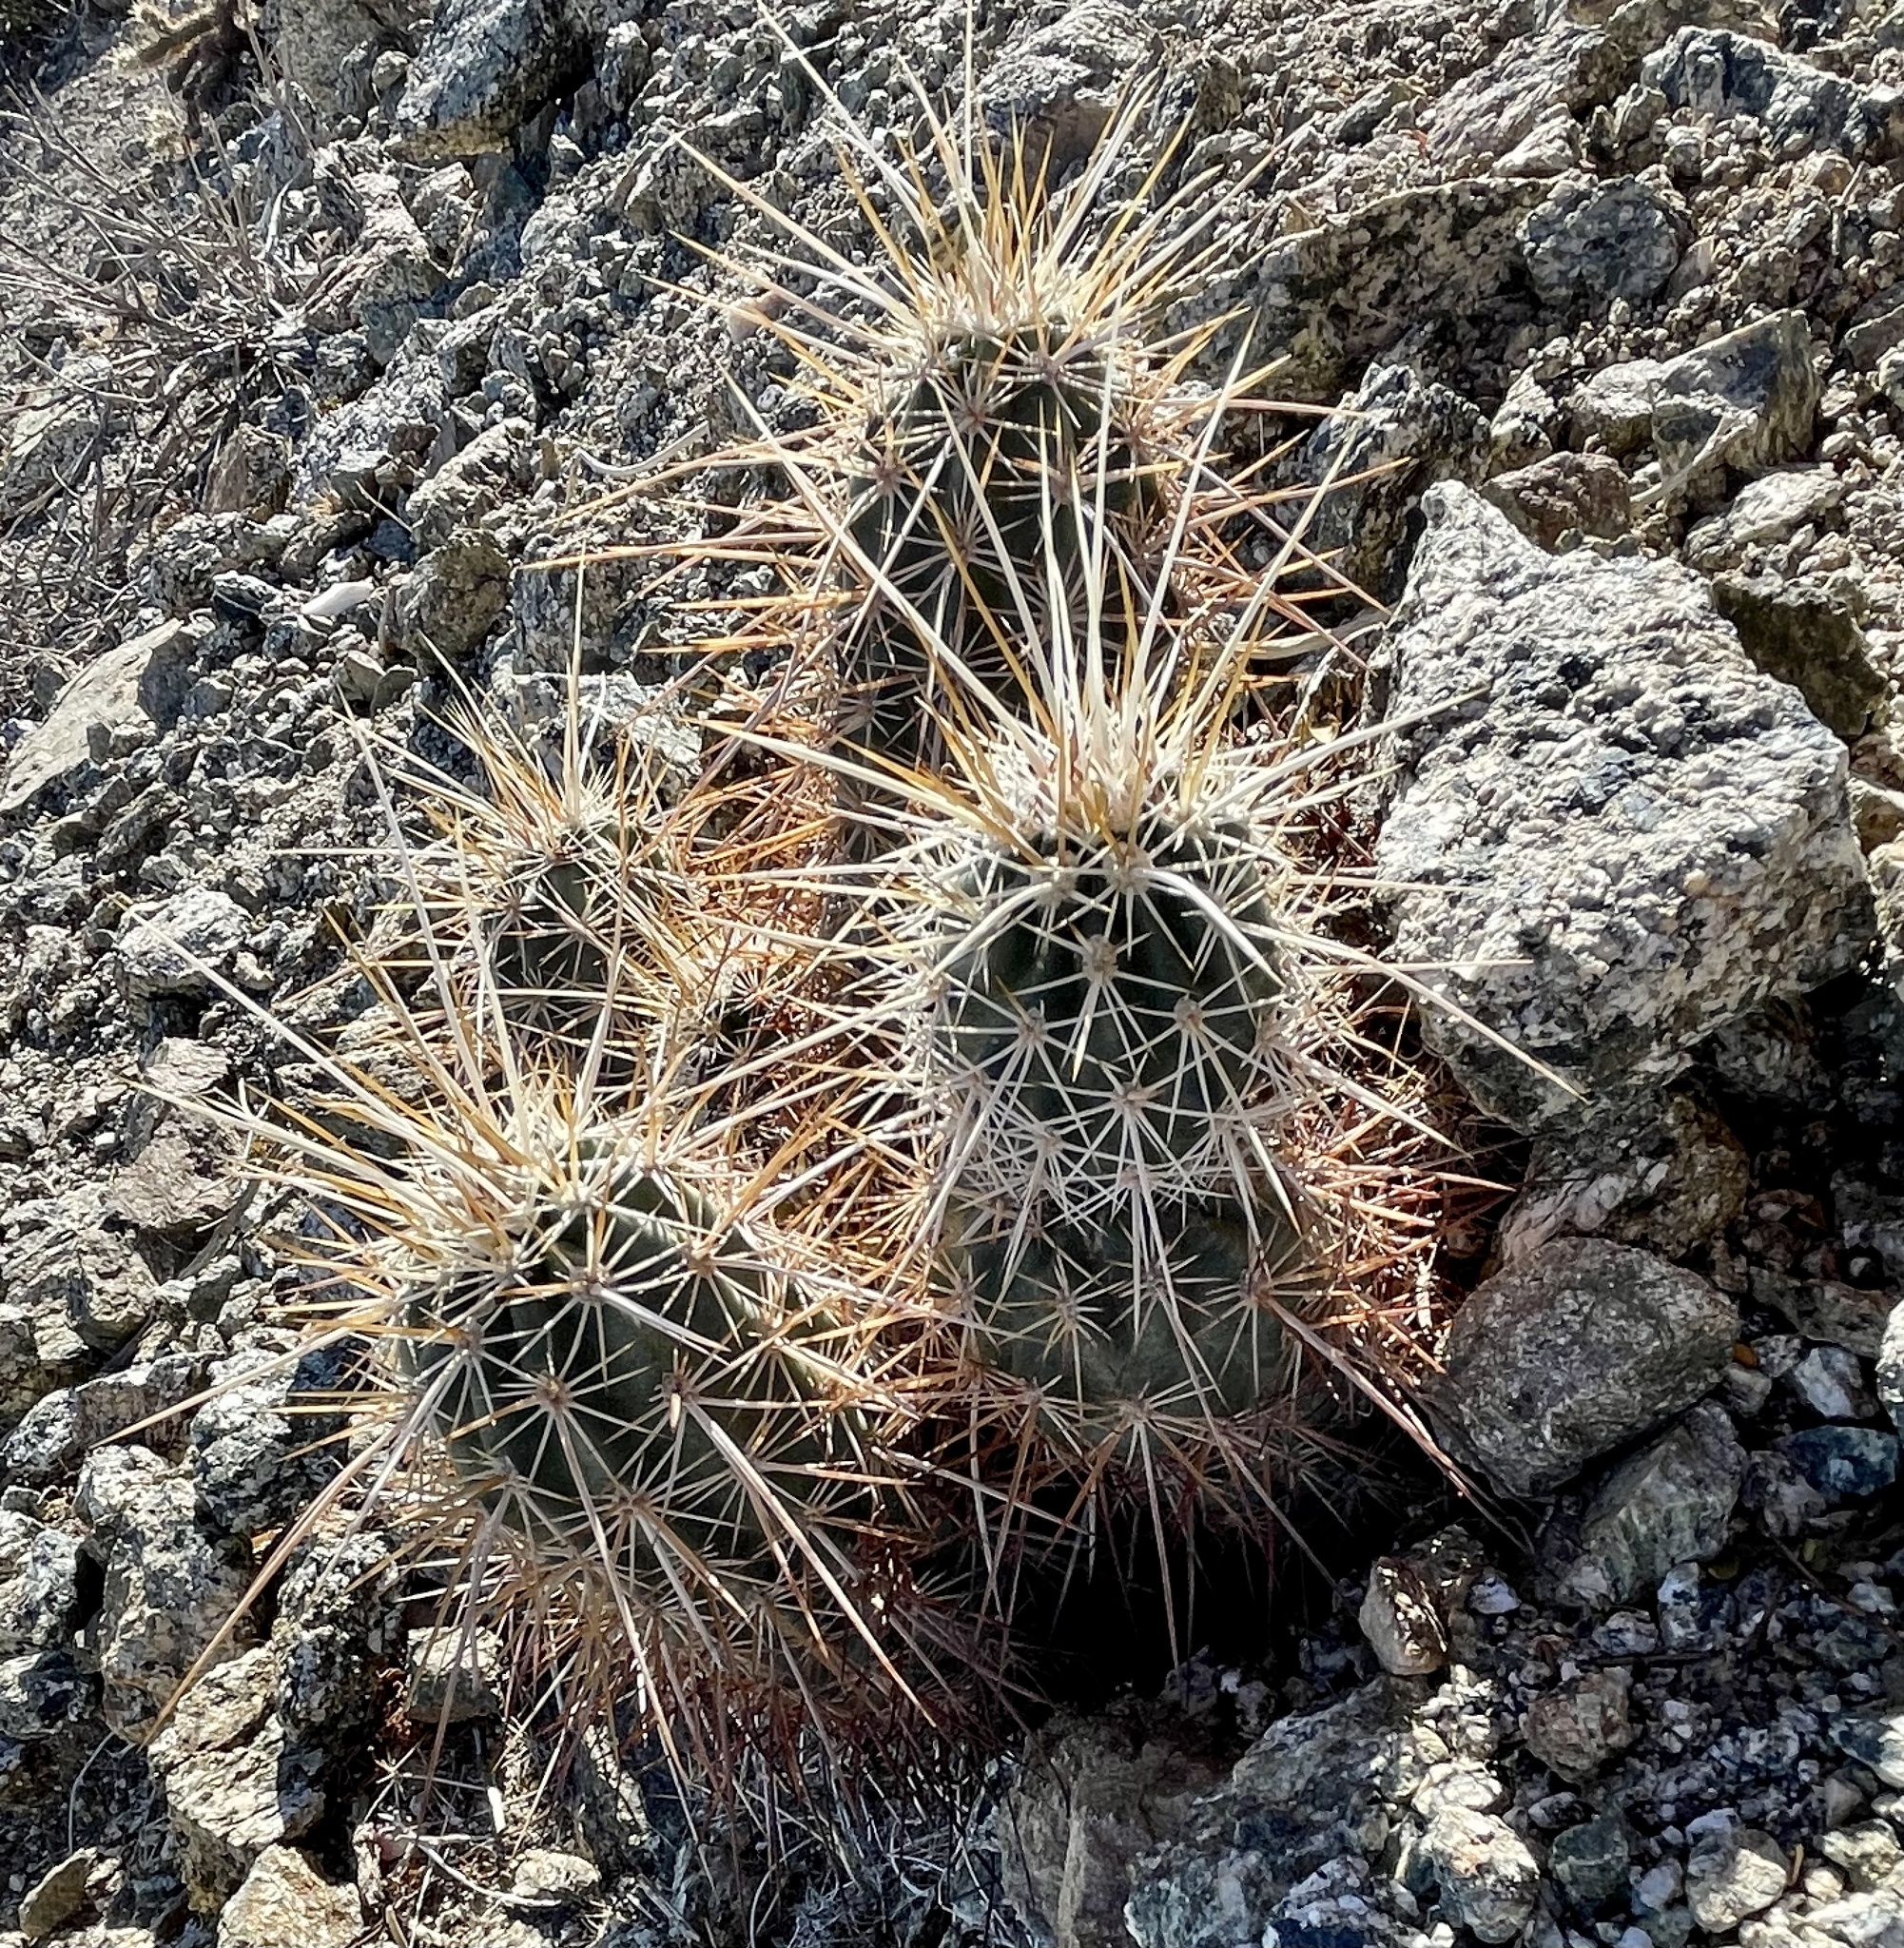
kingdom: Plantae
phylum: Tracheophyta
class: Magnoliopsida
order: Caryophyllales
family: Cactaceae
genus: Echinocereus
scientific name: Echinocereus engelmannii
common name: Engelmann's hedgehog cactus
